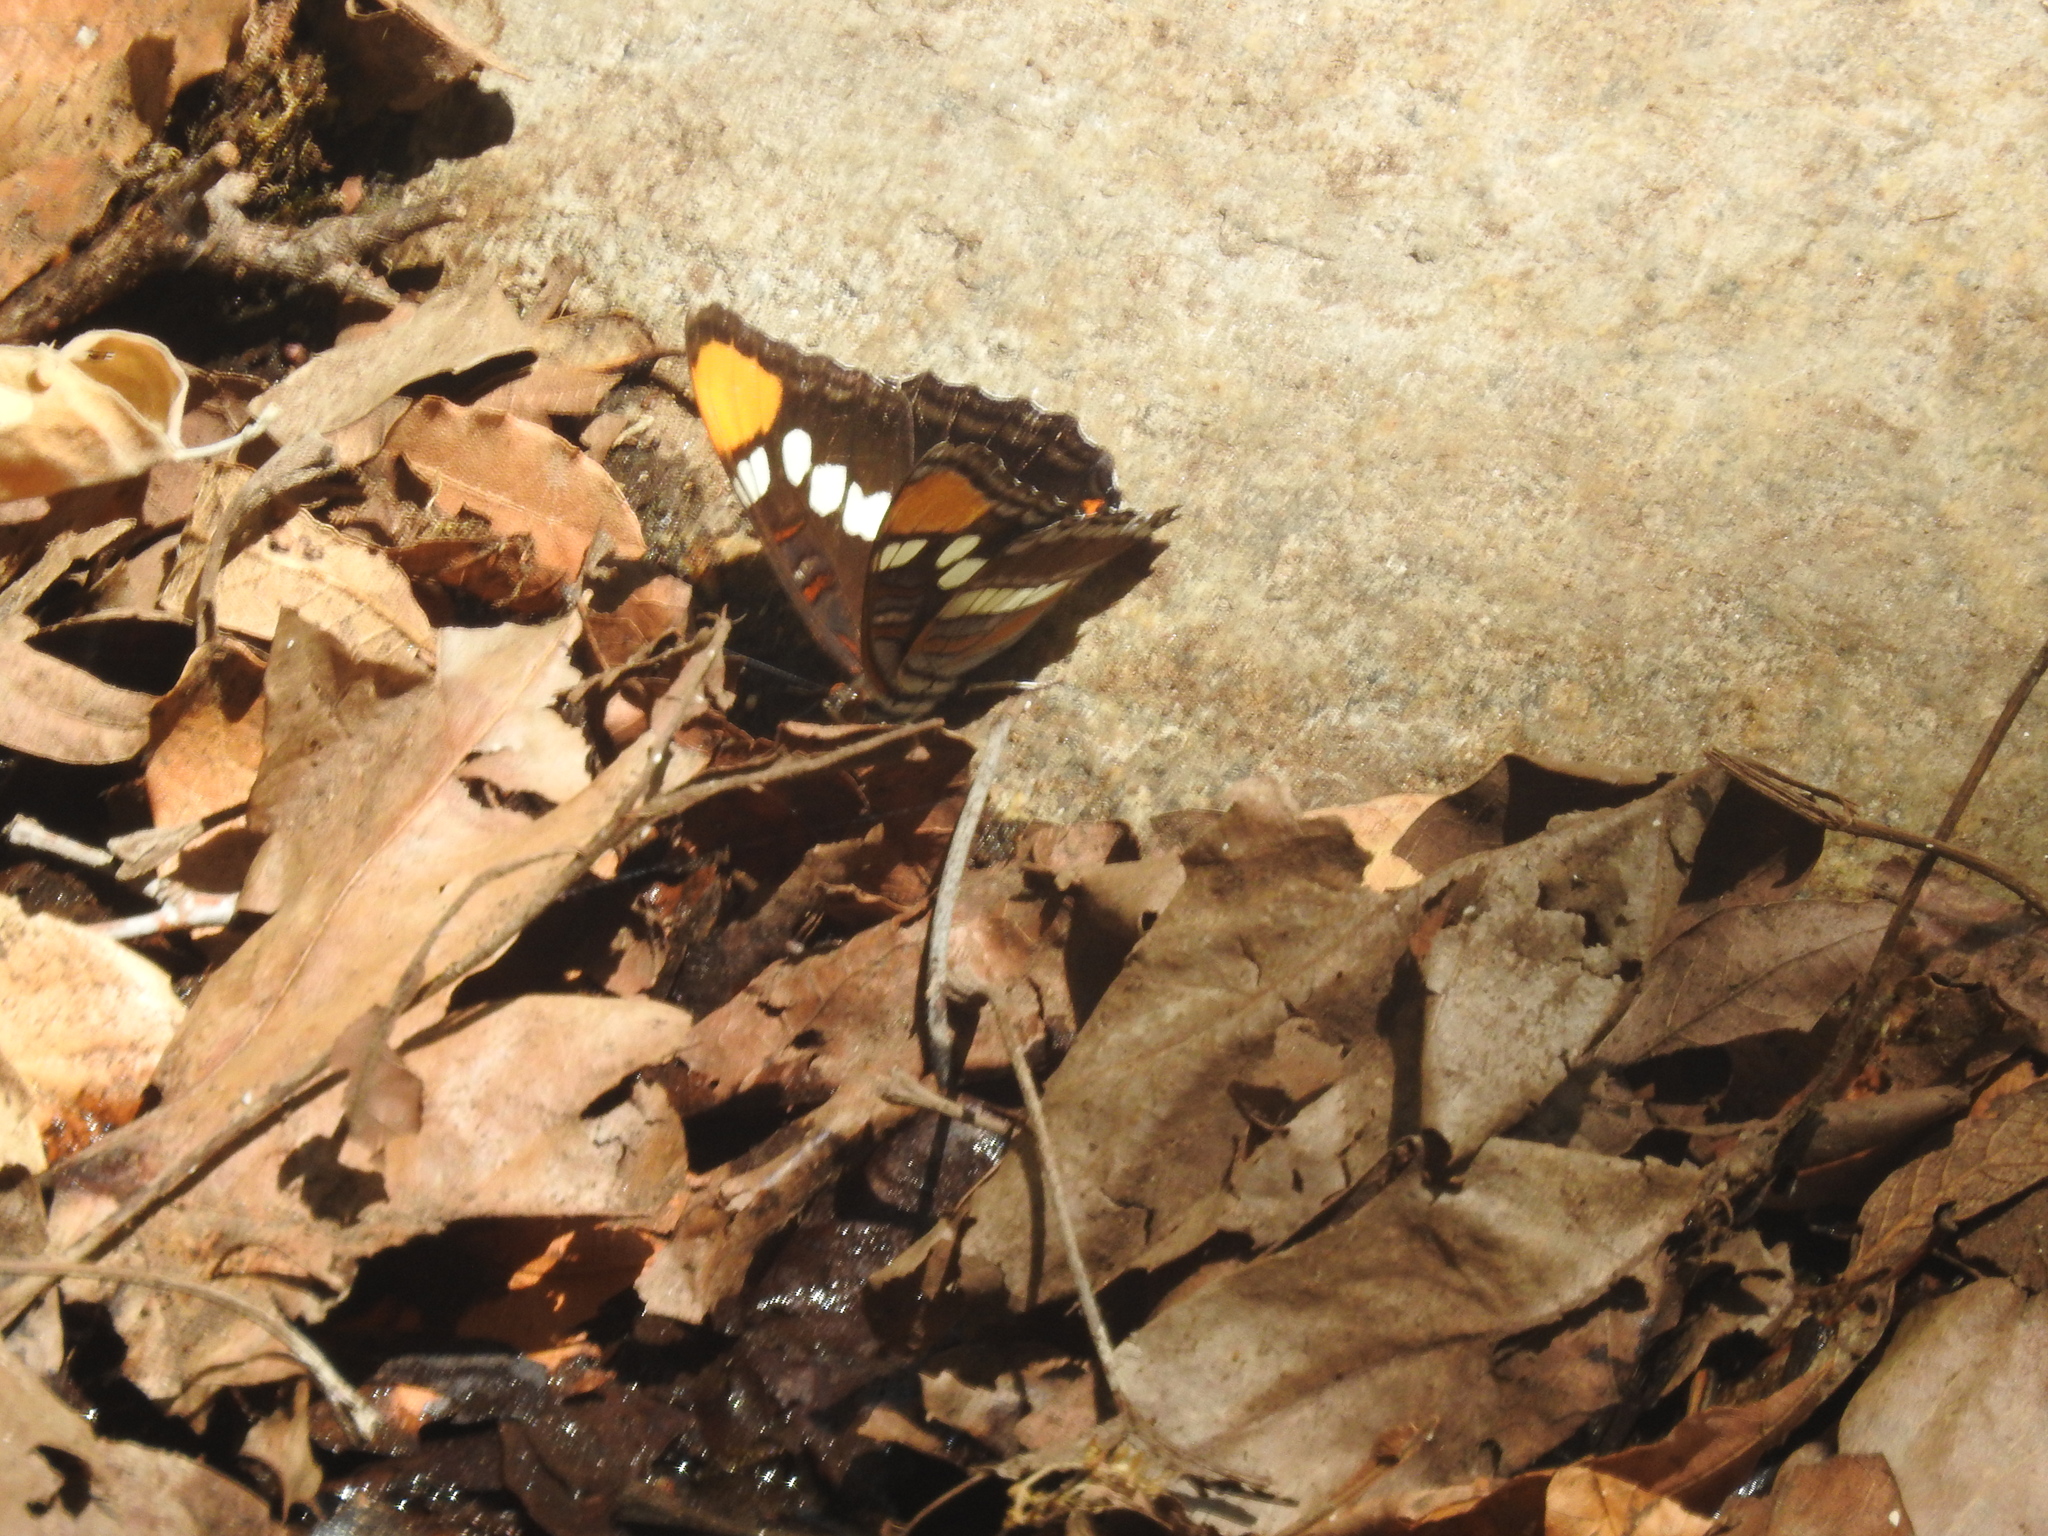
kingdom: Animalia
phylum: Arthropoda
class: Insecta
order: Lepidoptera
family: Nymphalidae
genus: Limenitis
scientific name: Limenitis bredowii
